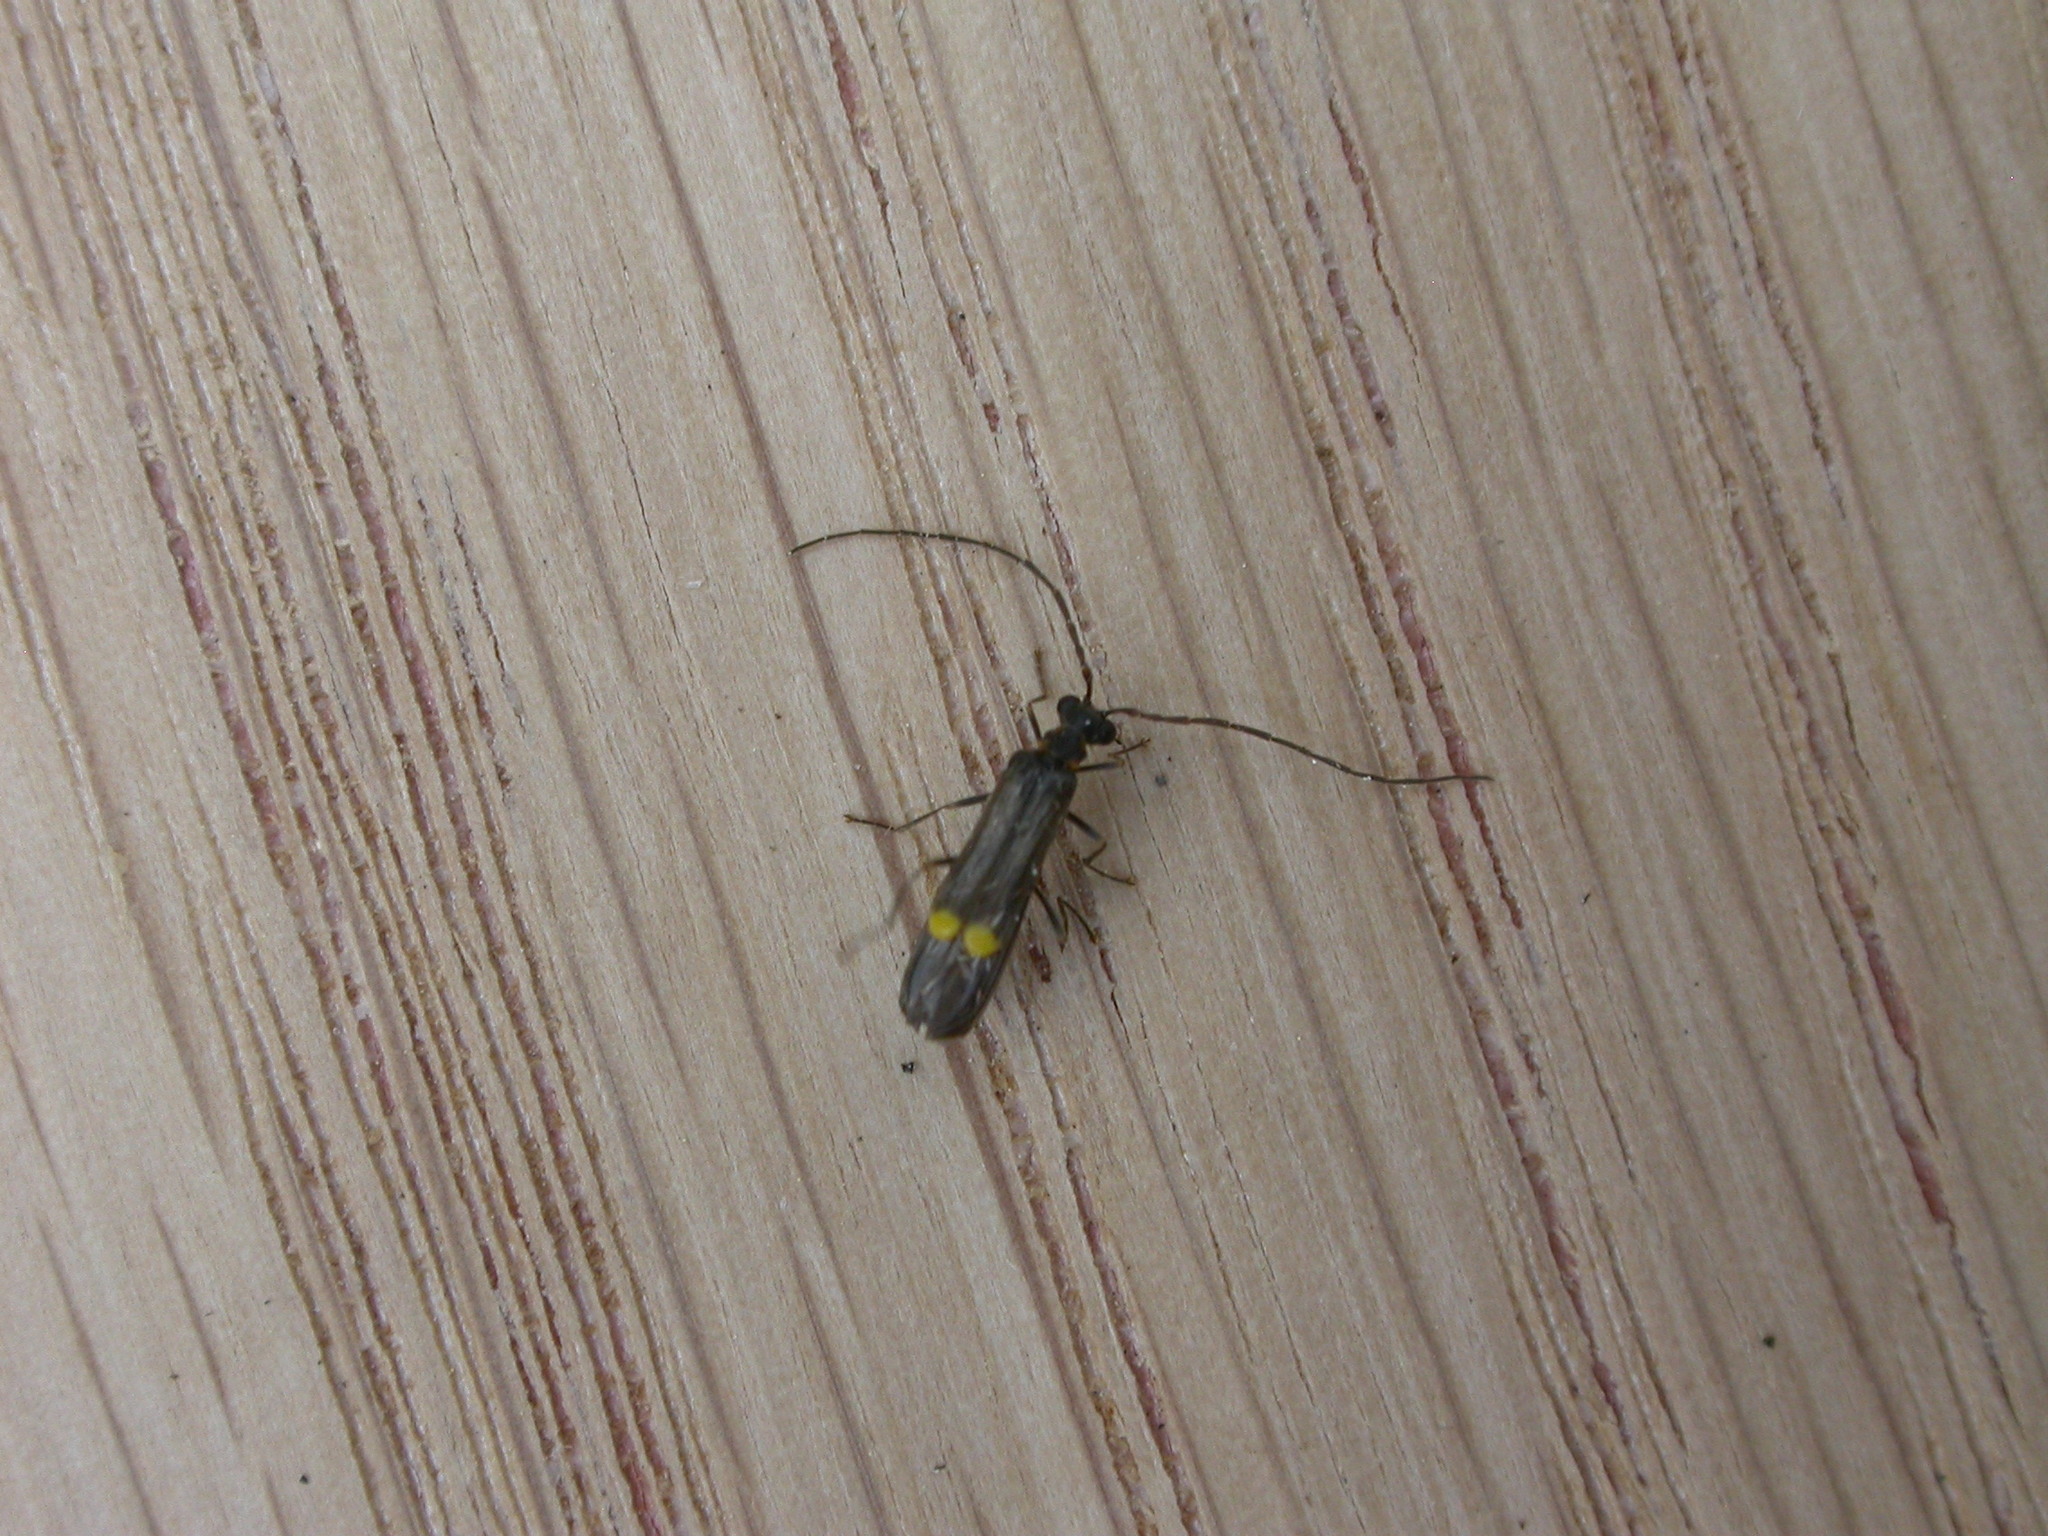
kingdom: Animalia
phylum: Arthropoda
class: Insecta
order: Coleoptera
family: Cantharidae
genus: Malthodes
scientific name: Malthodes marginatus
